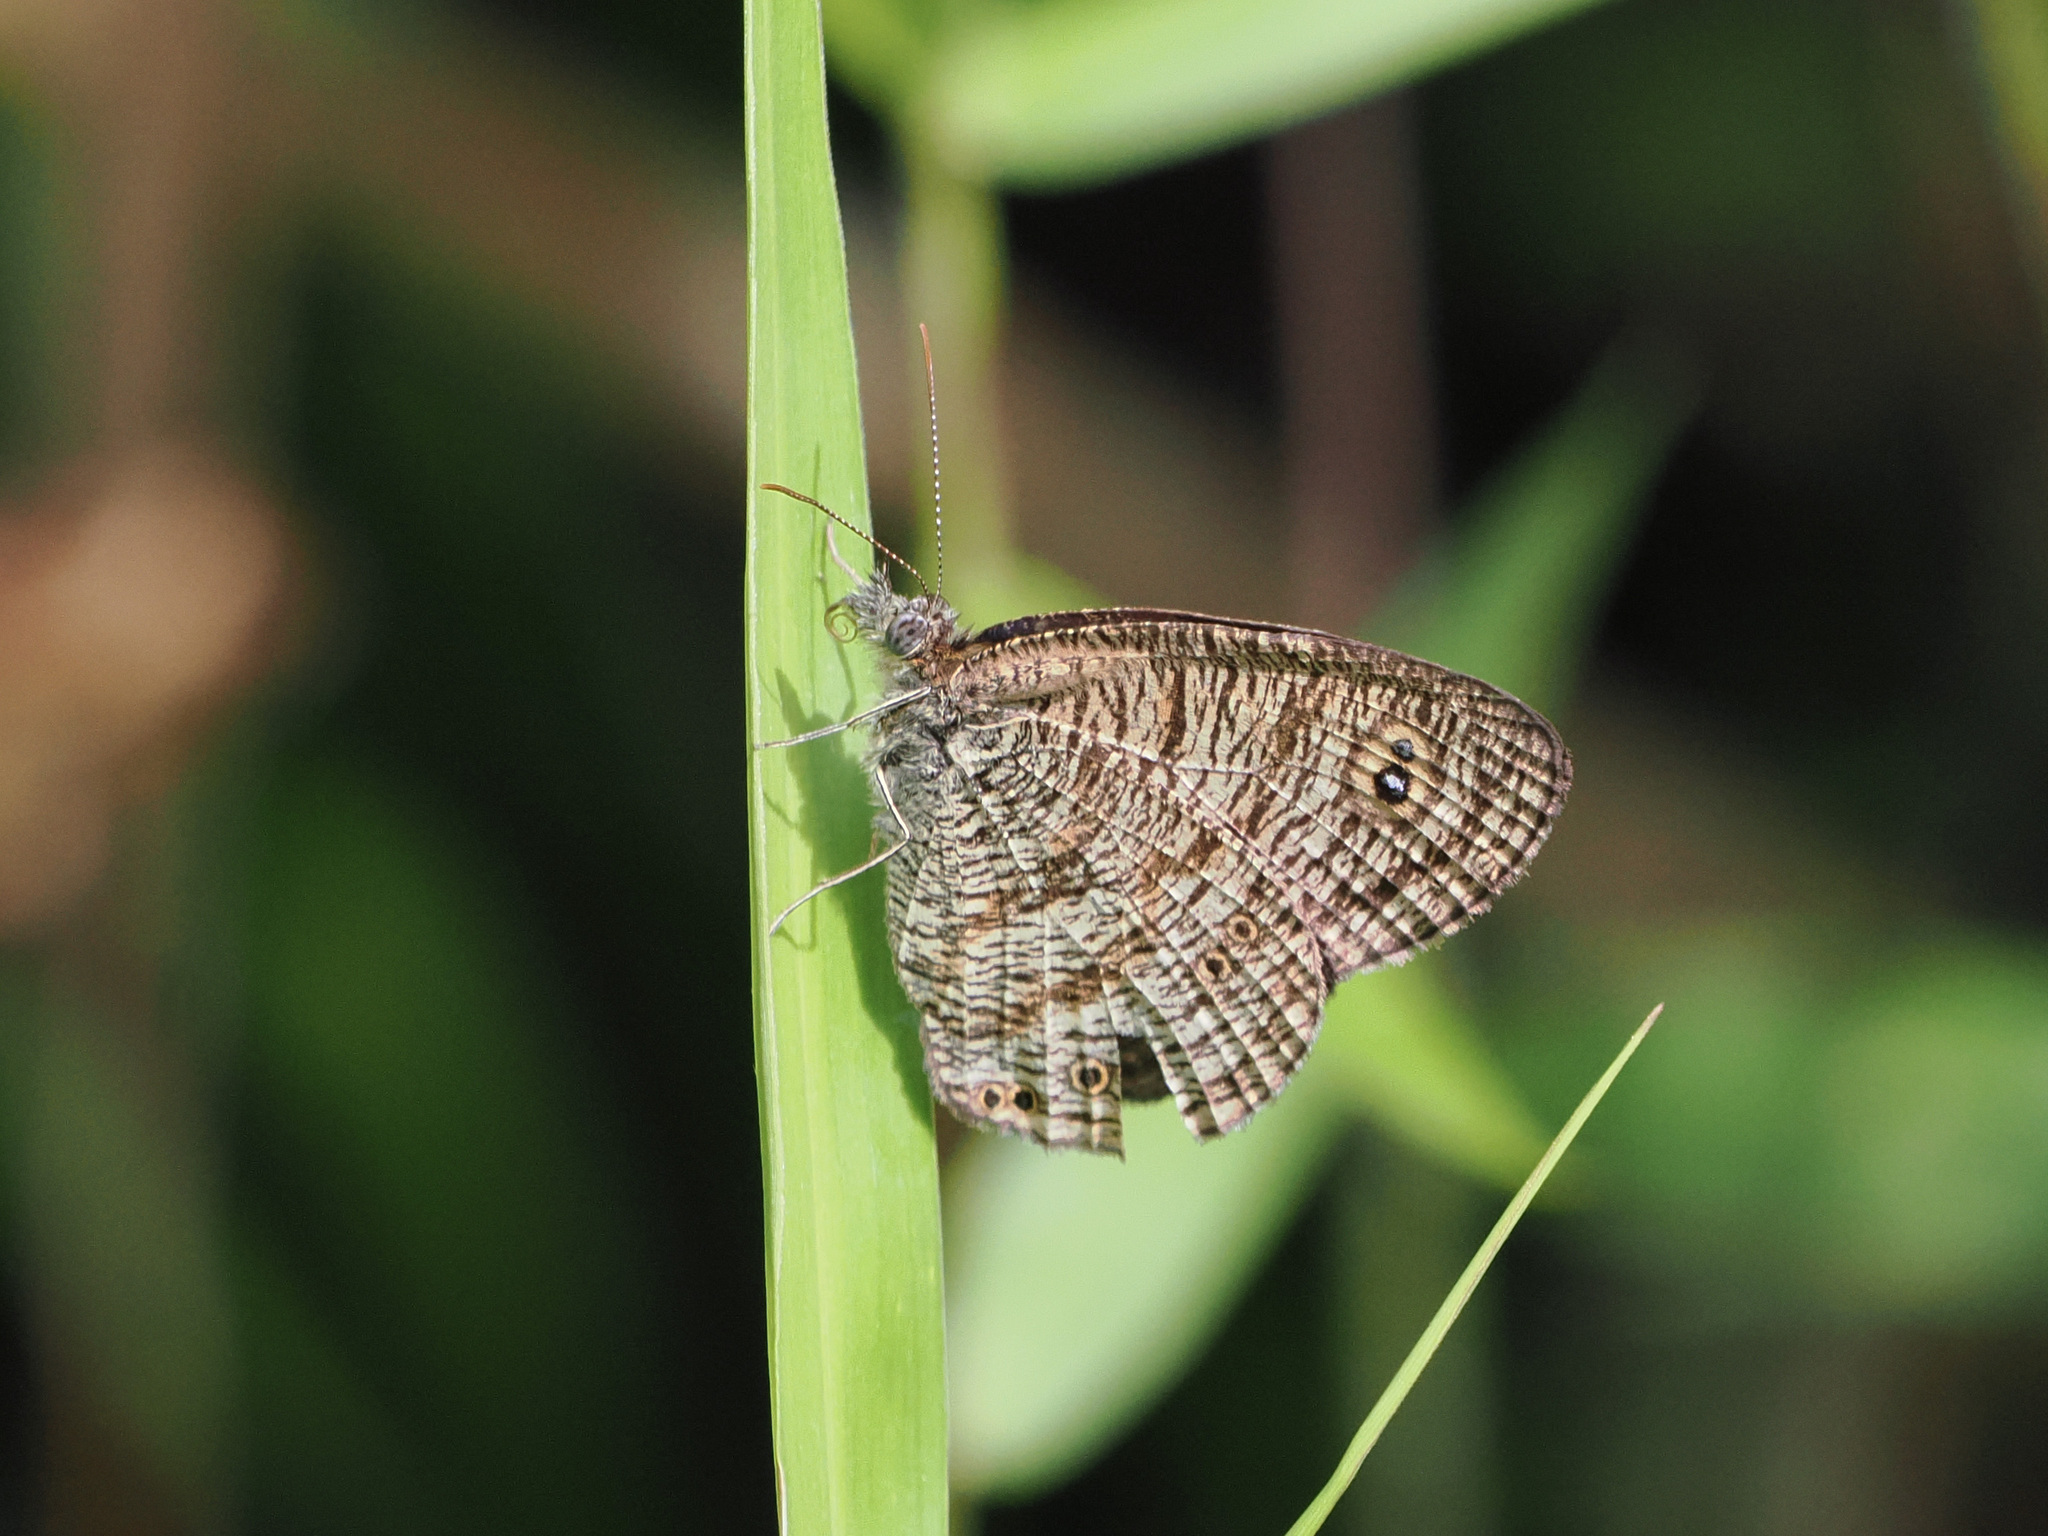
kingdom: Animalia
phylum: Arthropoda
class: Insecta
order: Lepidoptera
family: Nymphalidae
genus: Ypthima
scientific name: Ypthima nigricans
